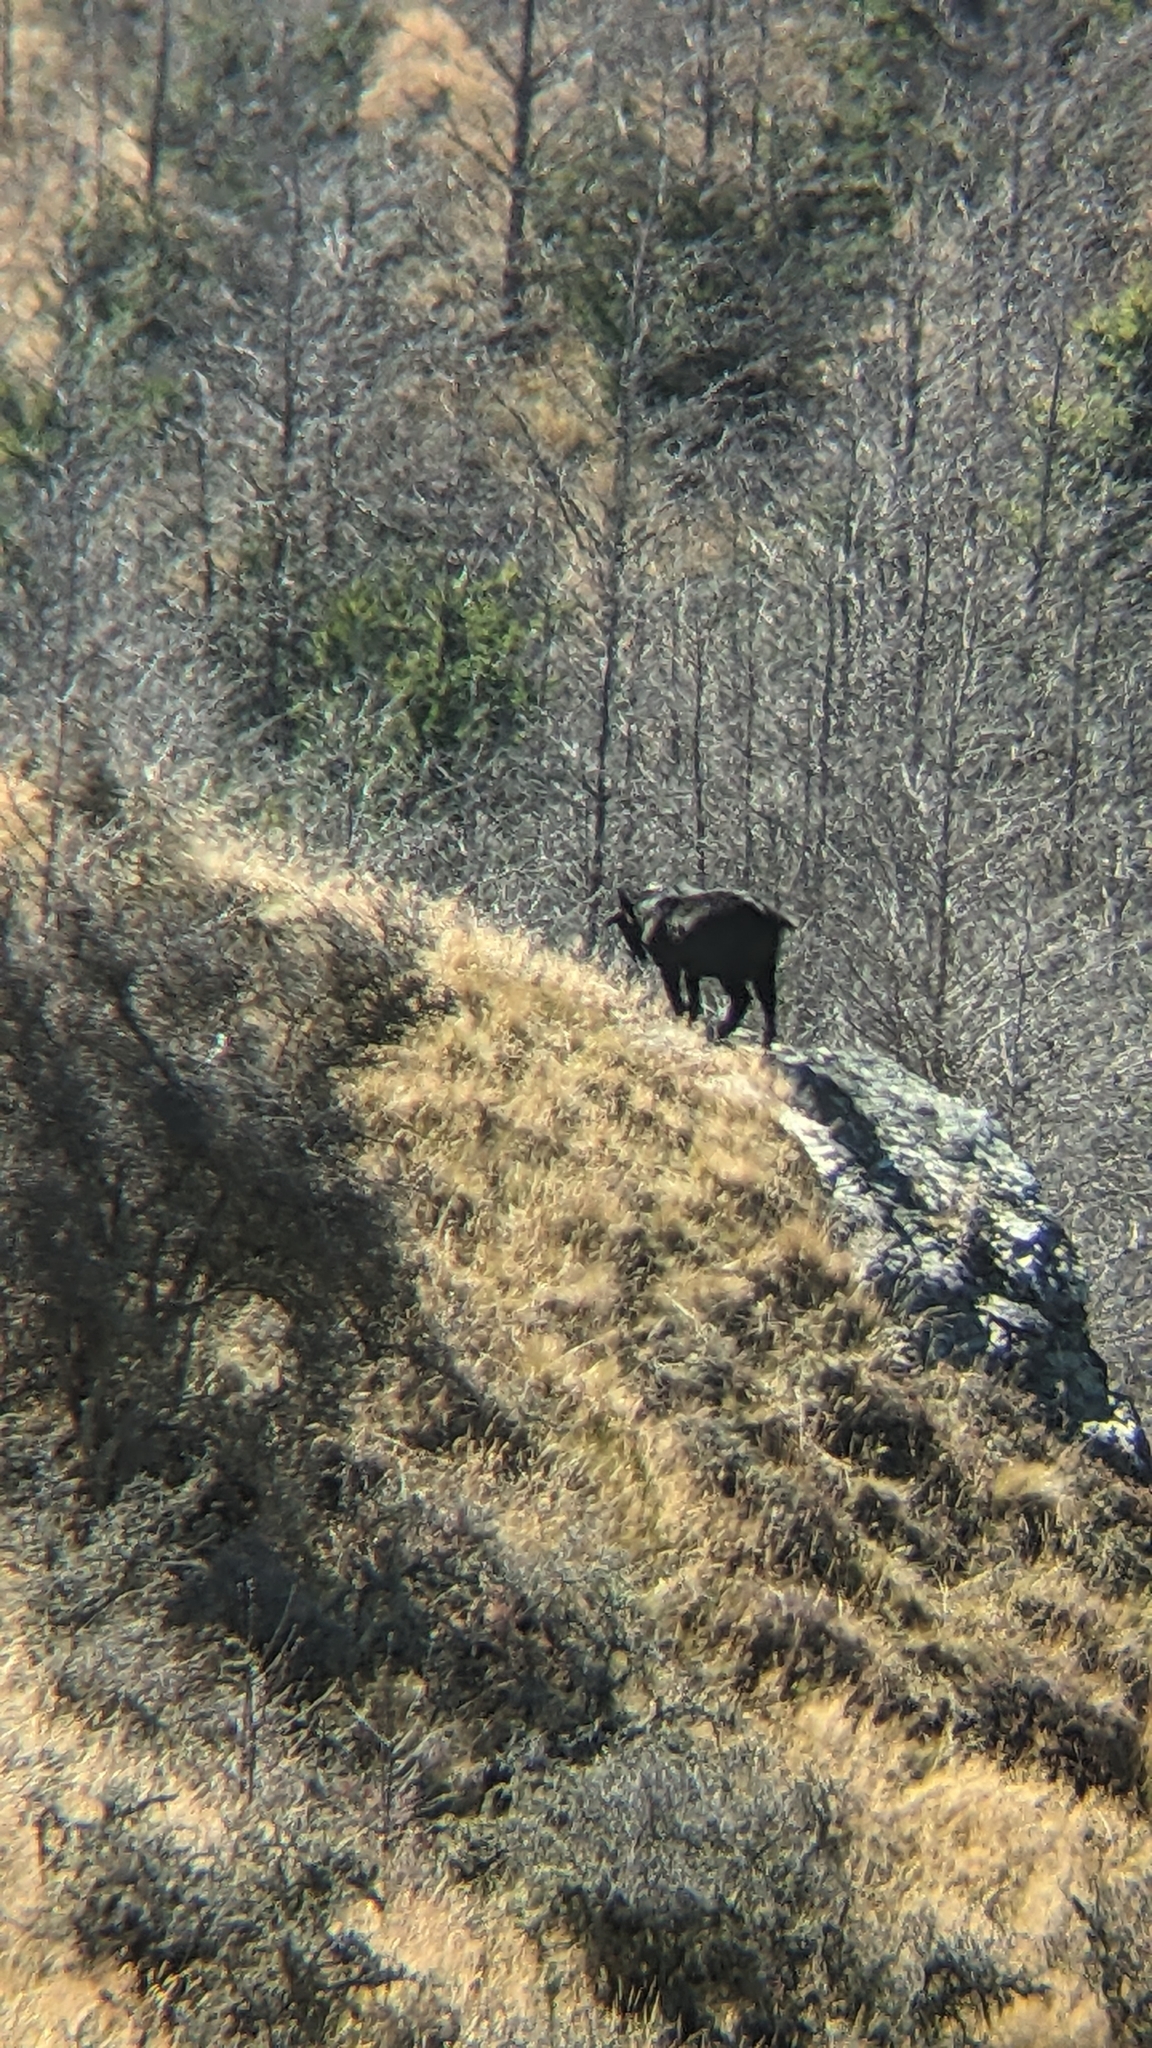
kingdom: Animalia
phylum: Chordata
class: Mammalia
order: Artiodactyla
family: Bovidae
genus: Capra
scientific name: Capra hircus
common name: Domestic goat
